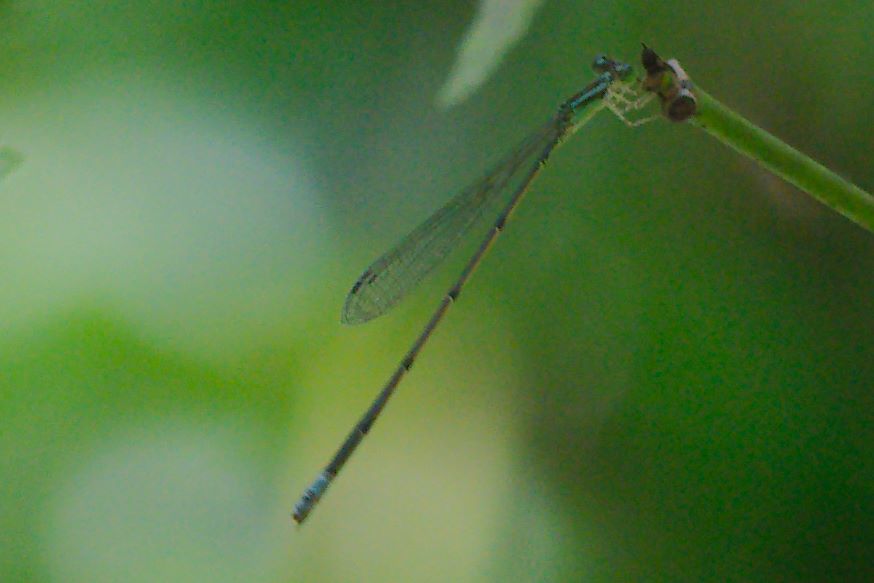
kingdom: Animalia
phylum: Arthropoda
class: Insecta
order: Odonata
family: Coenagrionidae
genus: Leptobasis
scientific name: Leptobasis lucifer
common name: Lucifer swampdamsel
